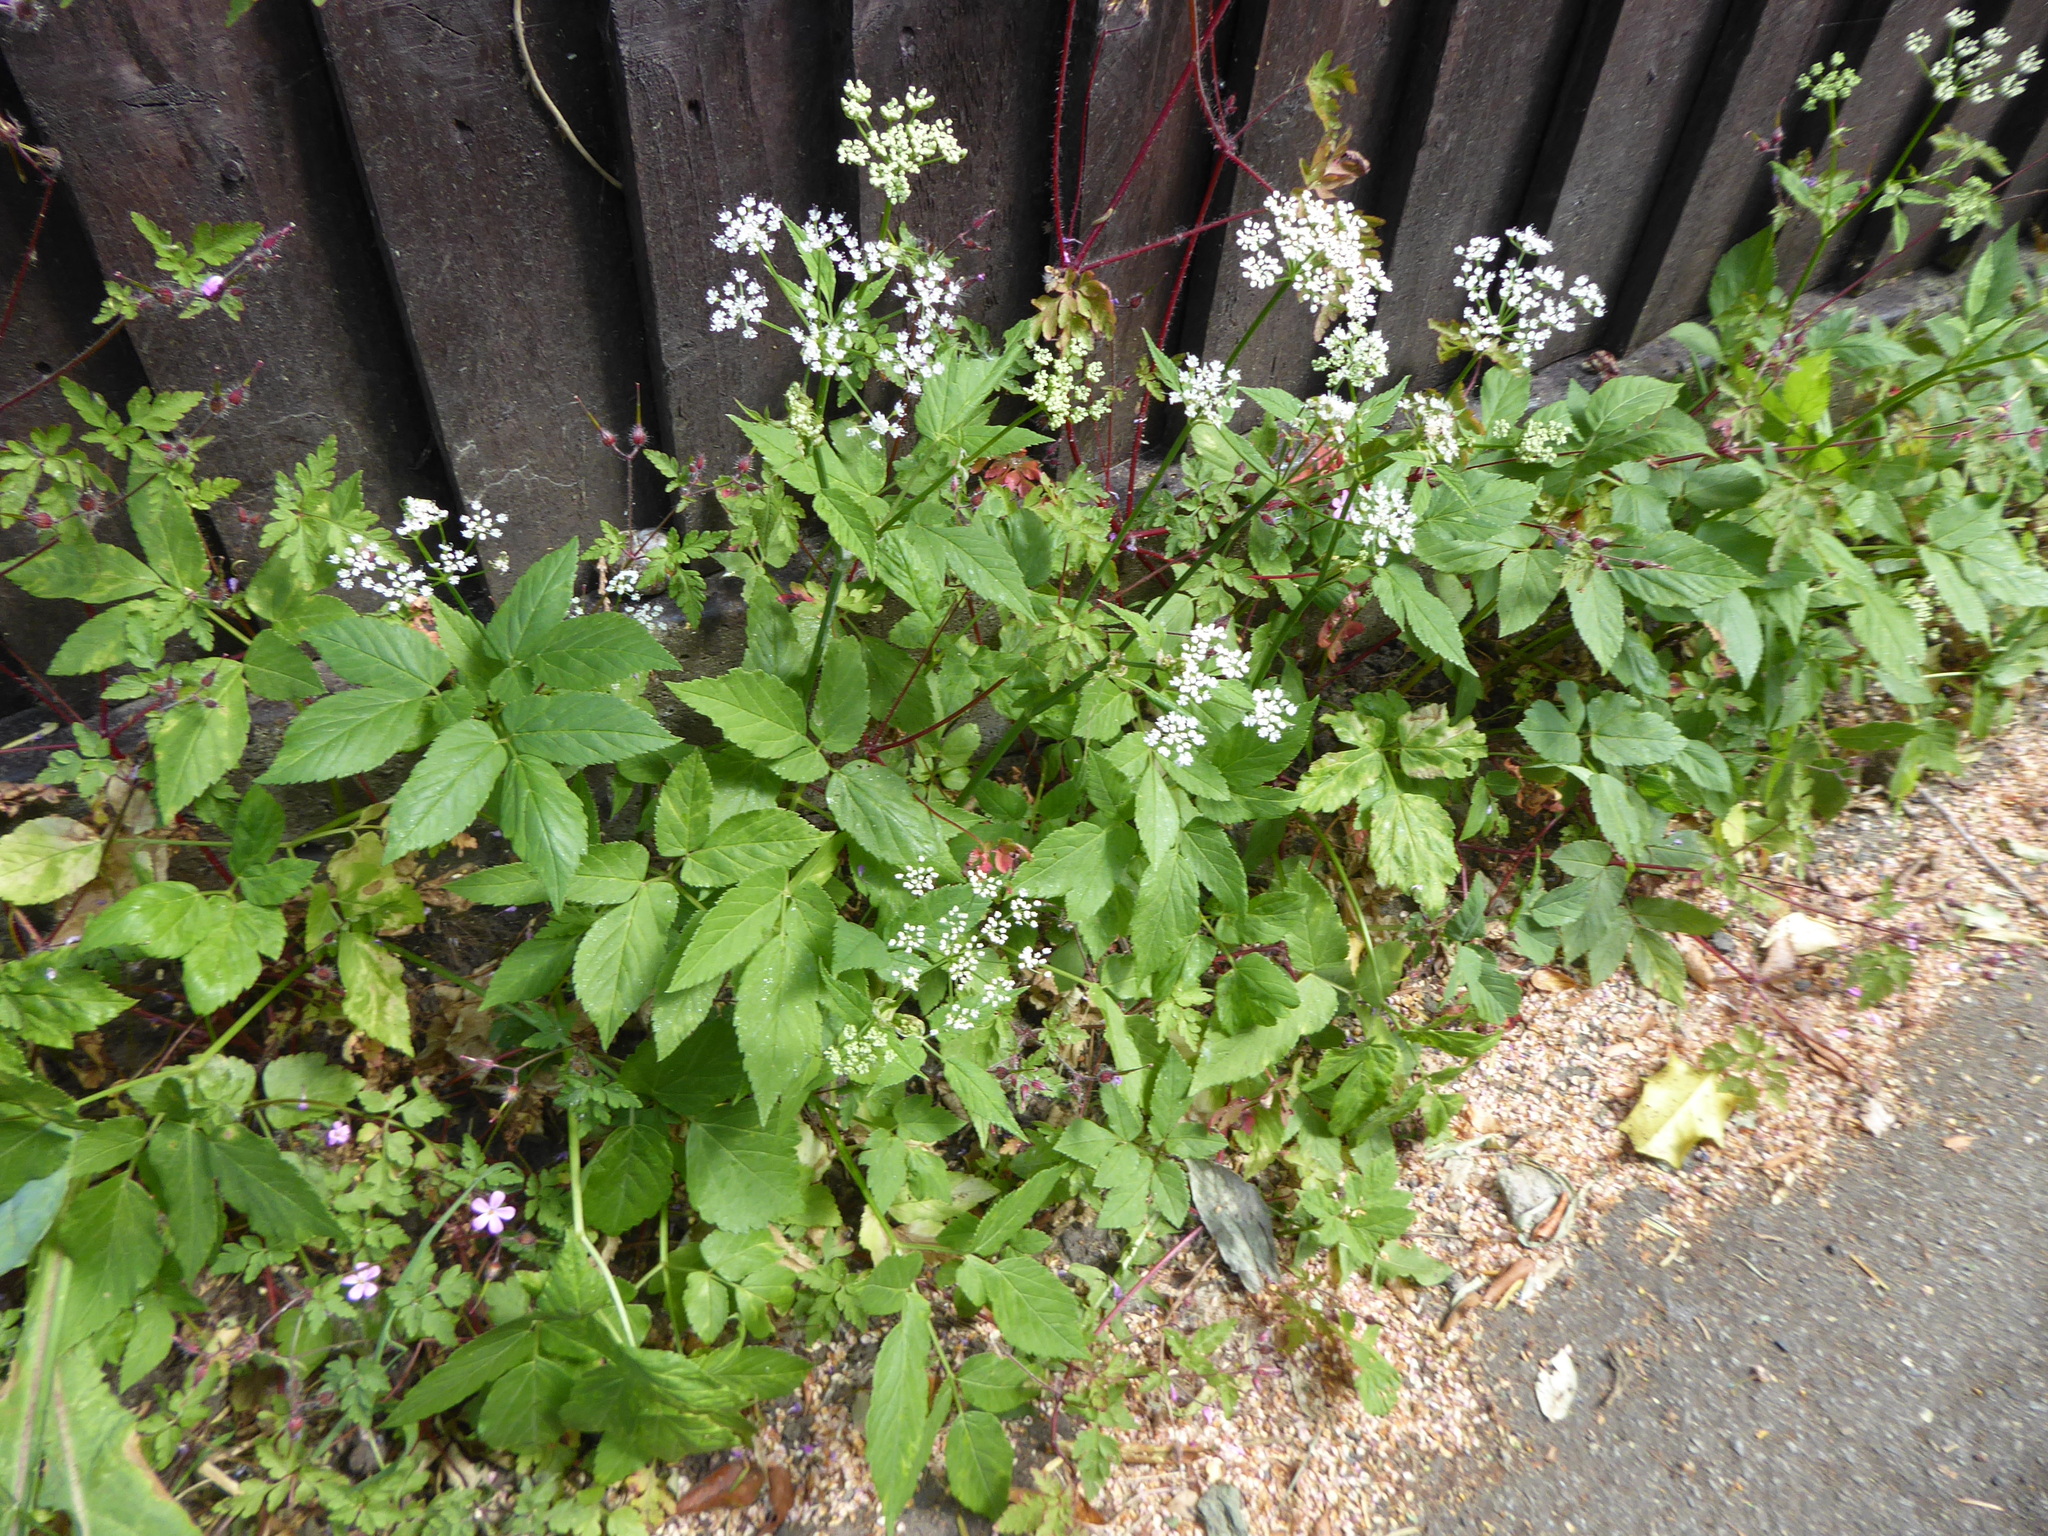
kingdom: Plantae
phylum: Tracheophyta
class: Magnoliopsida
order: Apiales
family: Apiaceae
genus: Aegopodium
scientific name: Aegopodium podagraria
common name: Ground-elder
